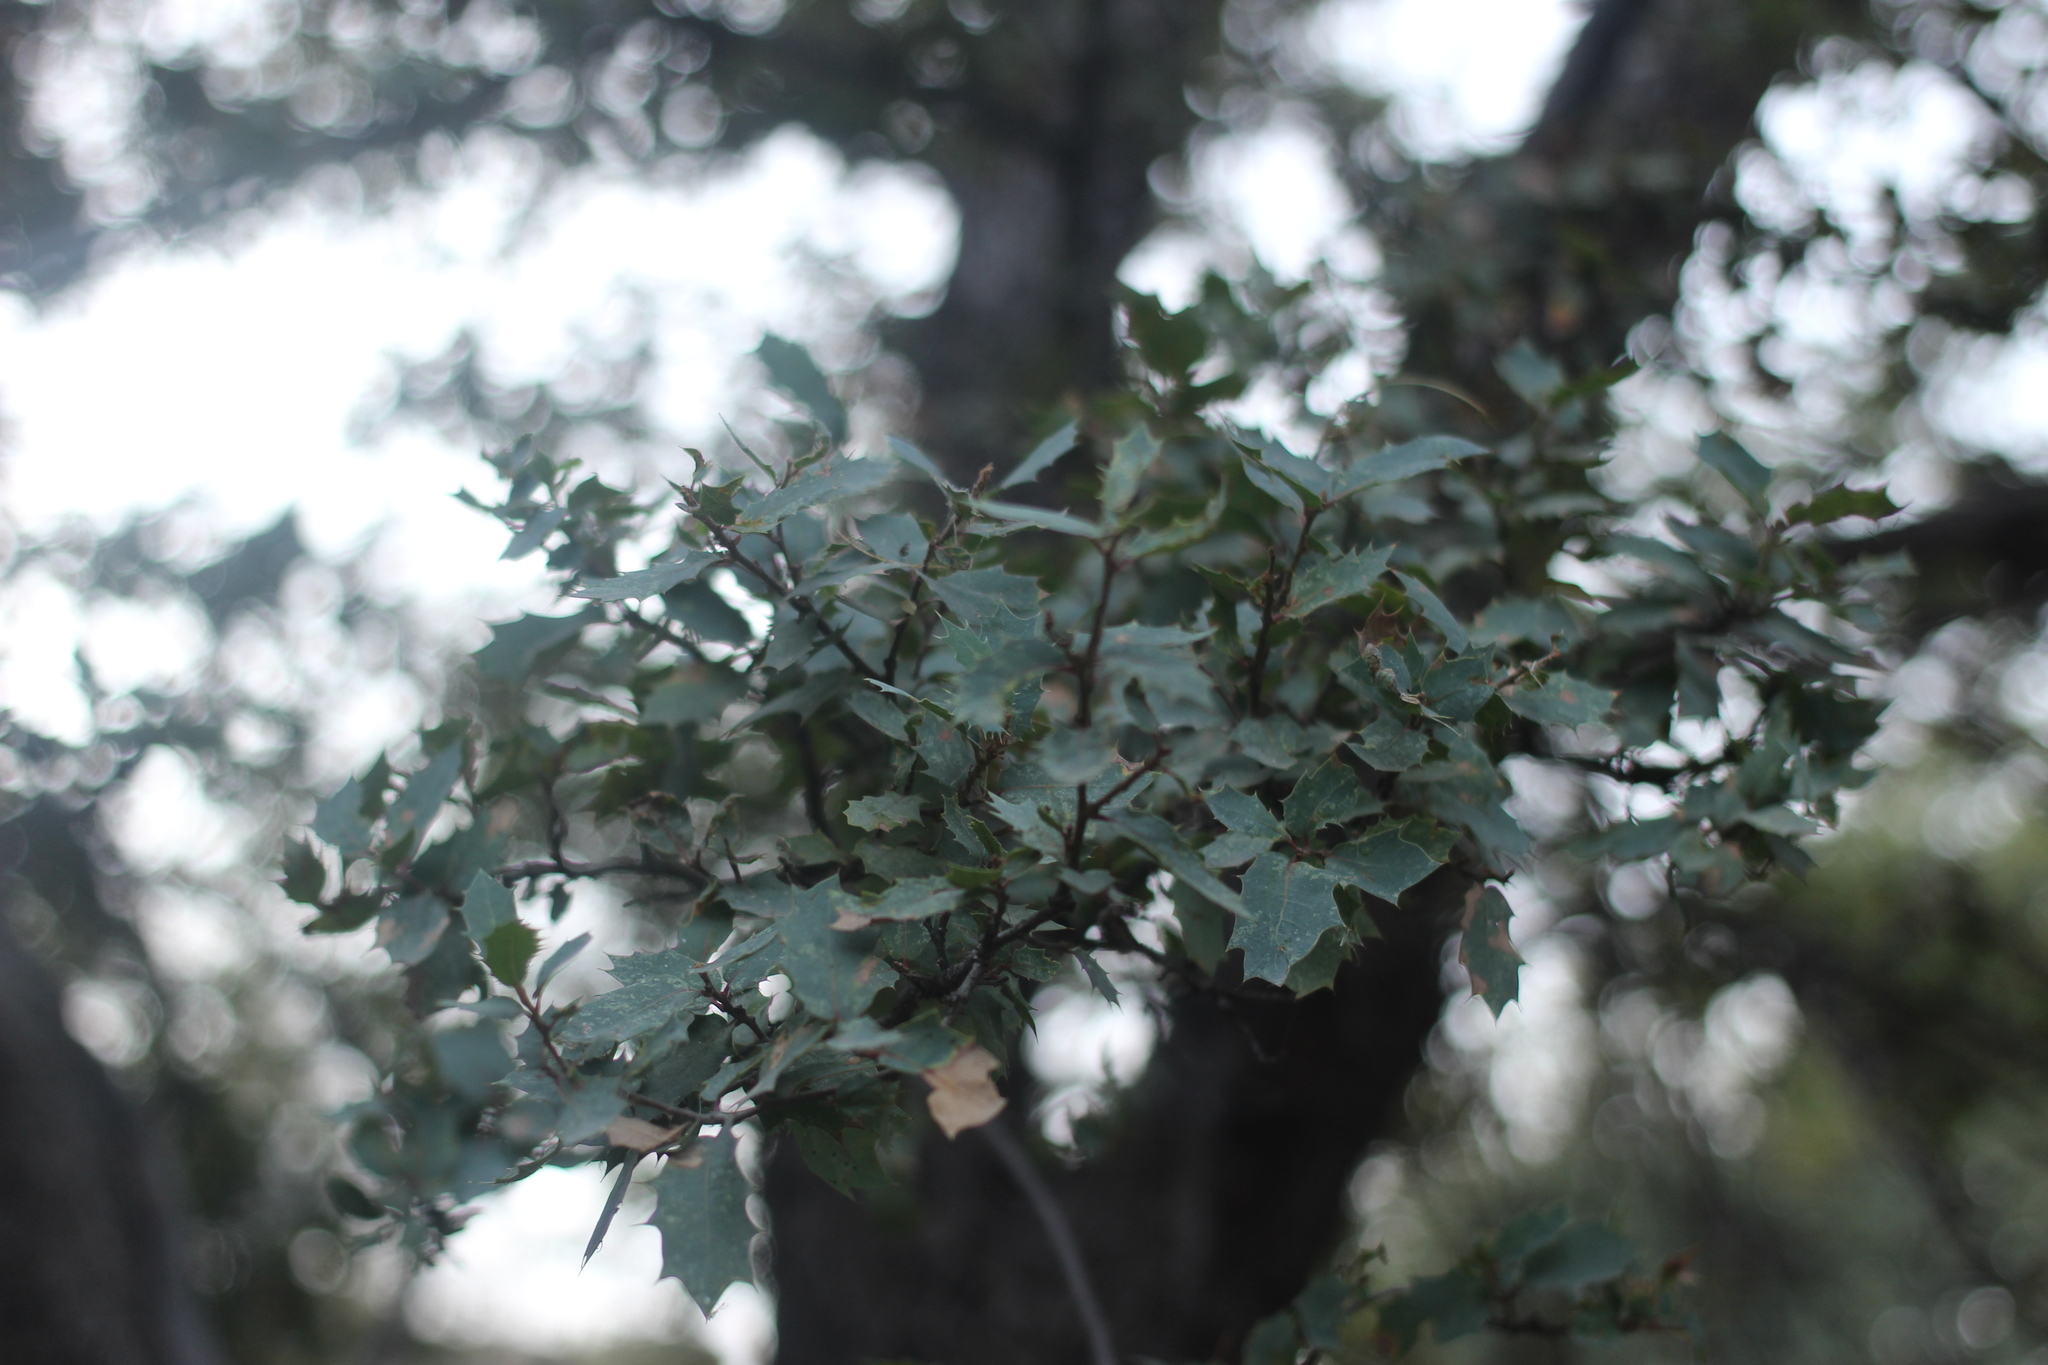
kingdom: Plantae
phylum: Tracheophyta
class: Magnoliopsida
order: Fagales
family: Fagaceae
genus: Quercus
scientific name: Quercus turbinella
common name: Sonoran scrub oak
